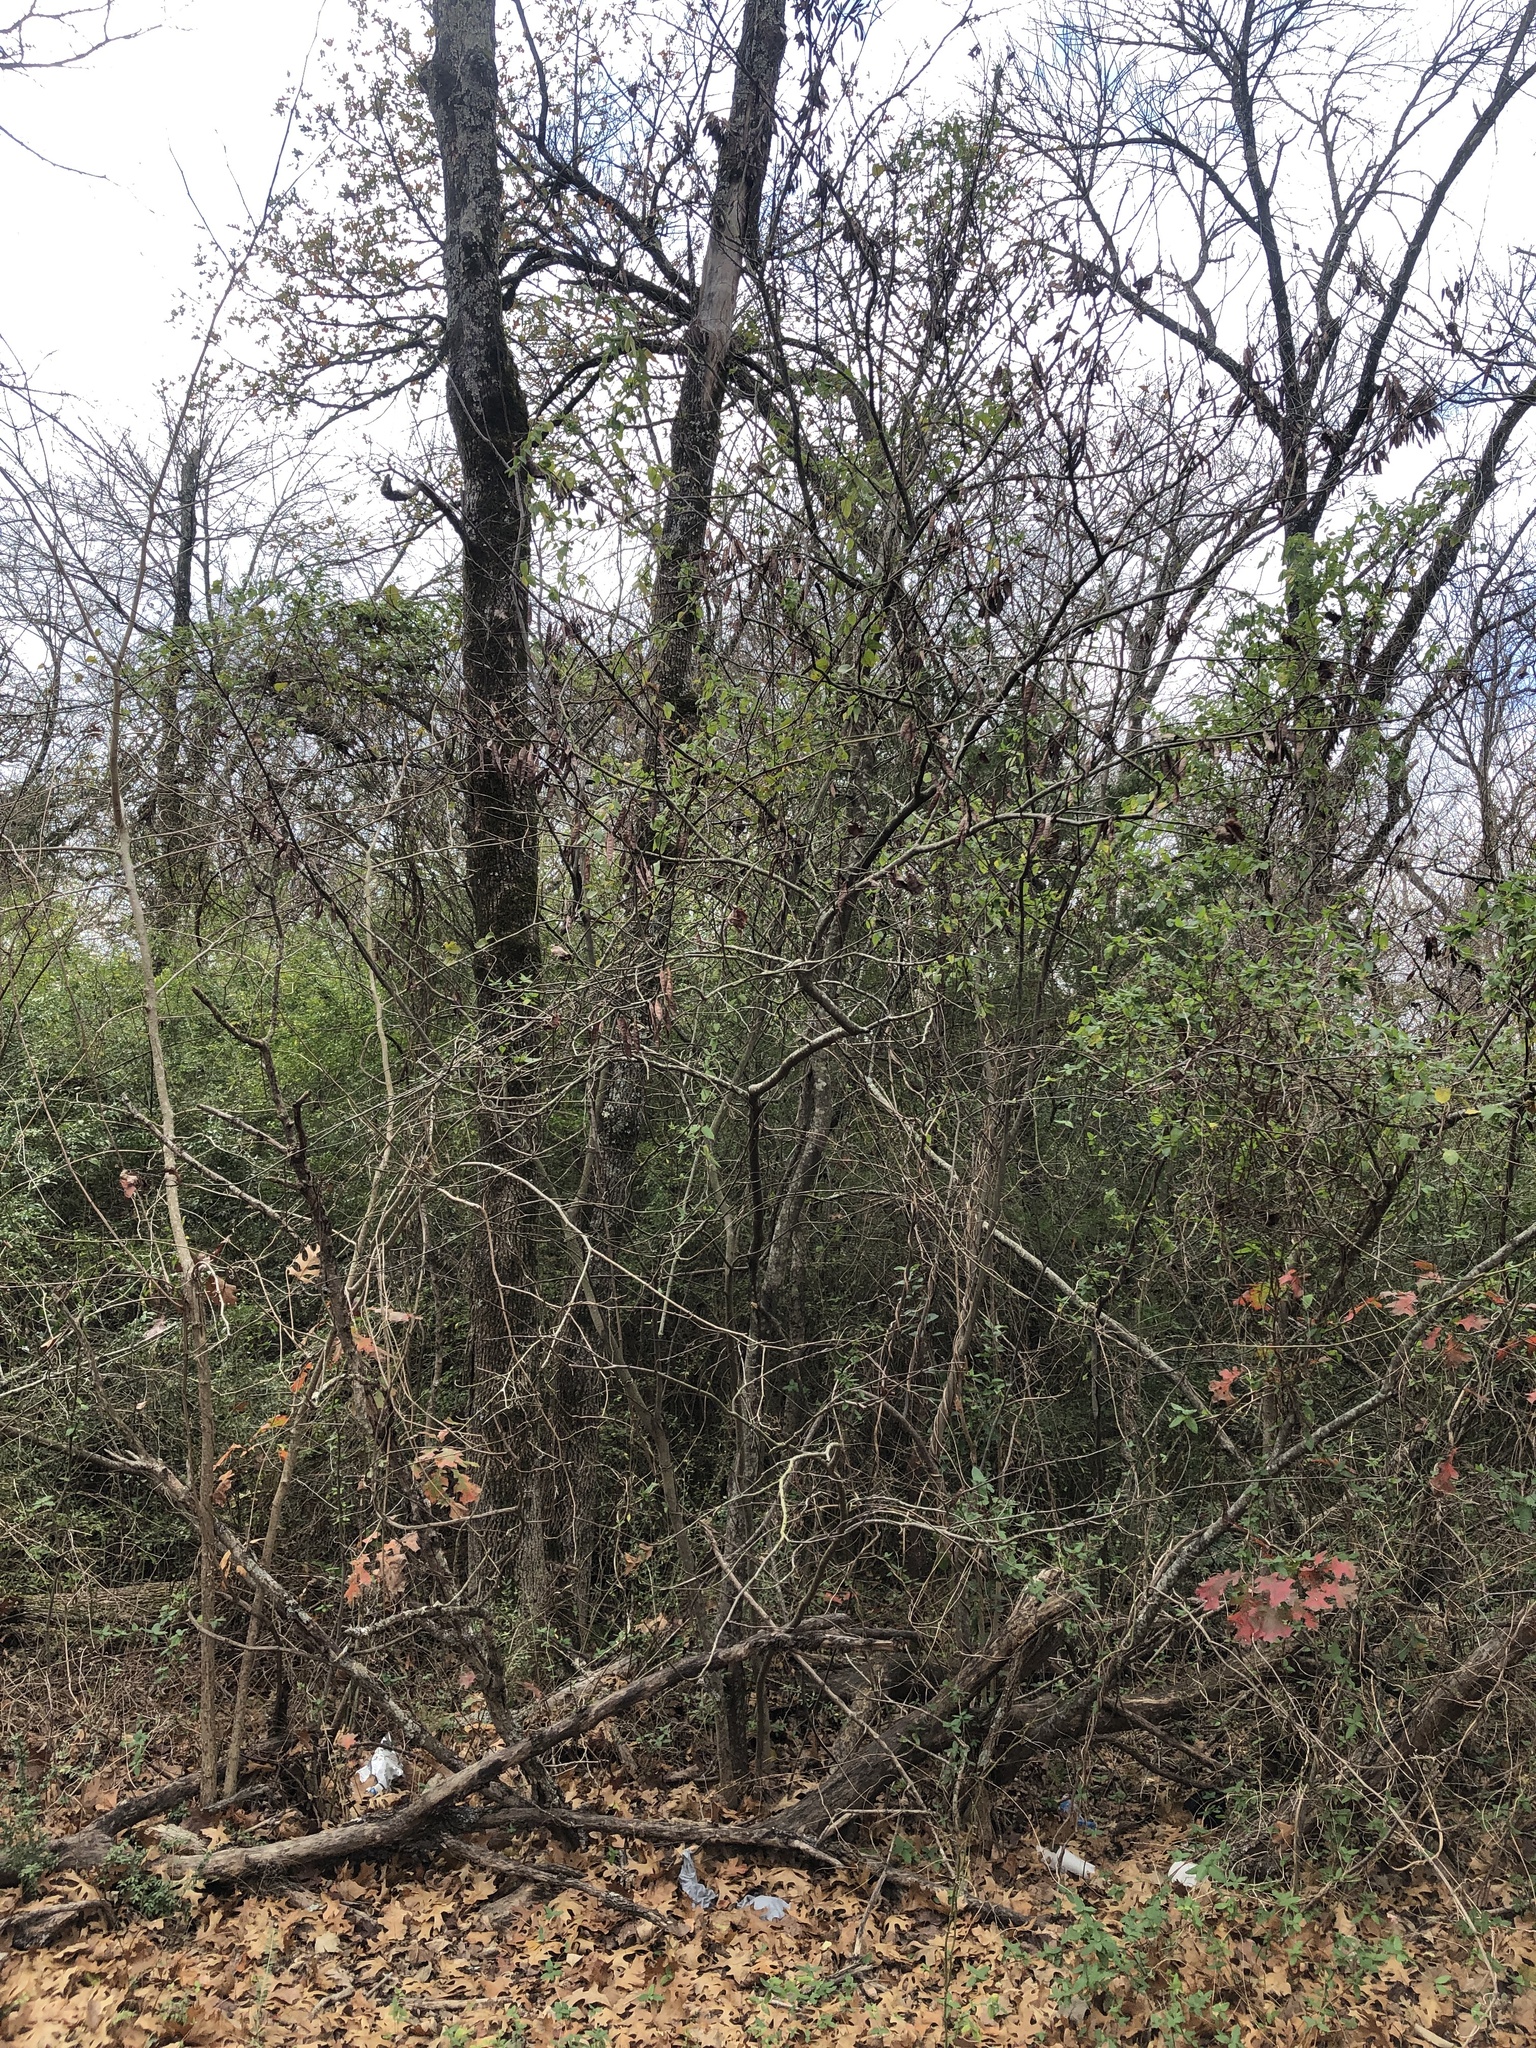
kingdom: Plantae
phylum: Tracheophyta
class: Magnoliopsida
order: Fabales
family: Fabaceae
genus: Cercis
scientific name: Cercis canadensis
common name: Eastern redbud
